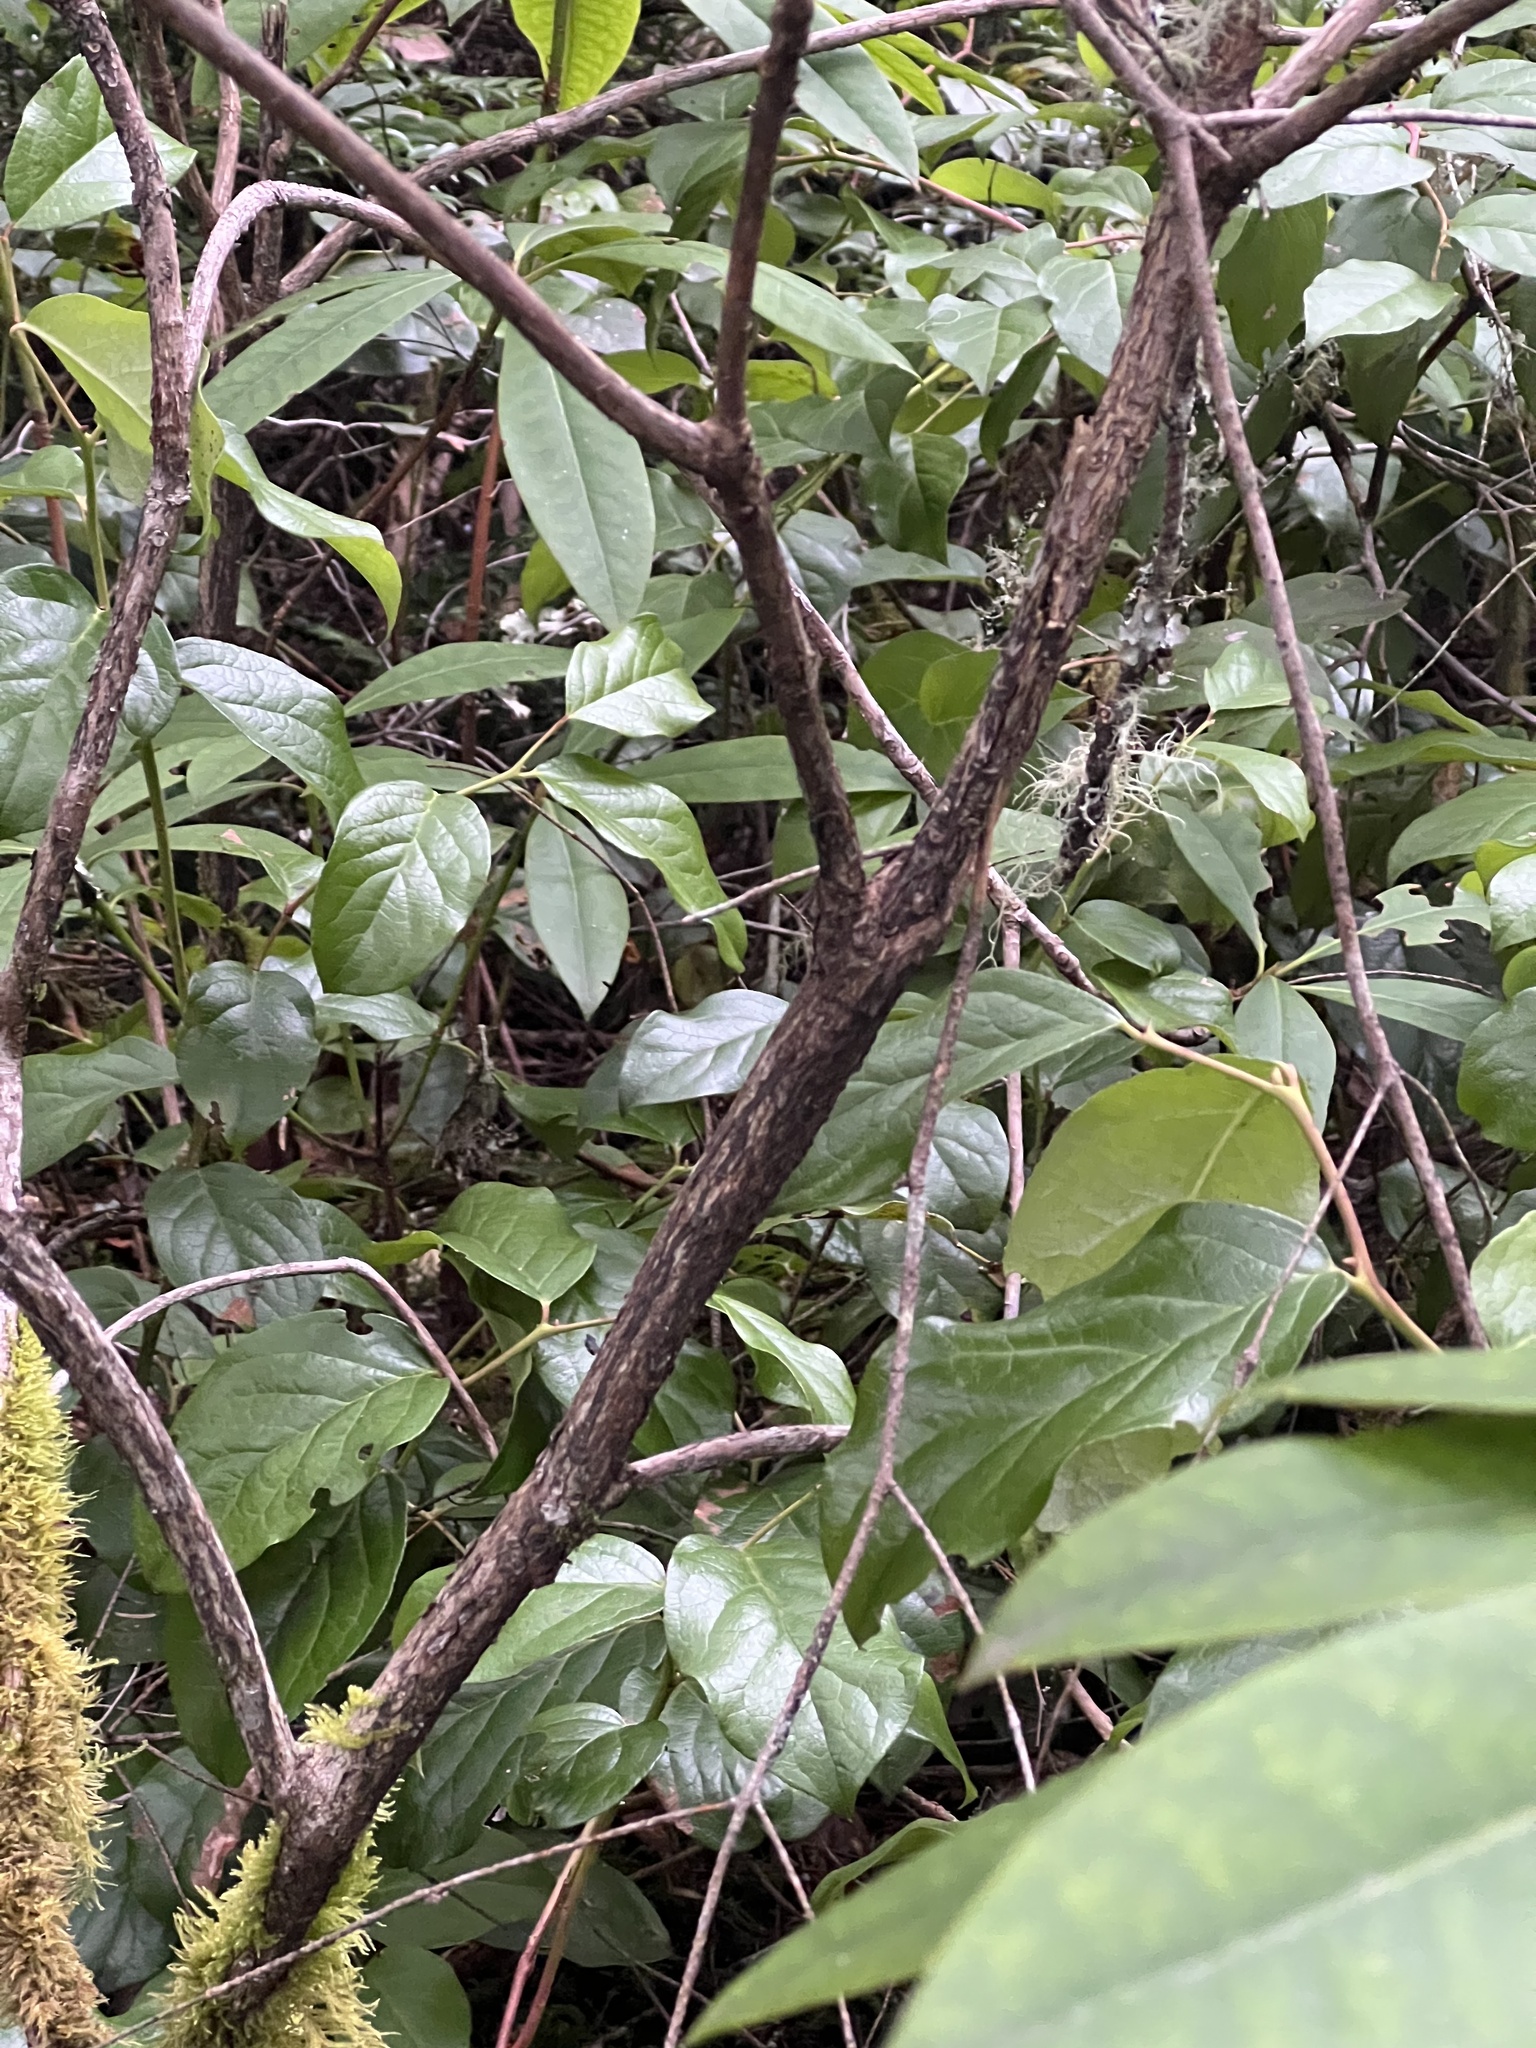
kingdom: Plantae
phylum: Tracheophyta
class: Magnoliopsida
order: Ericales
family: Ericaceae
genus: Rhododendron
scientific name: Rhododendron macrophyllum
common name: California rose bay
